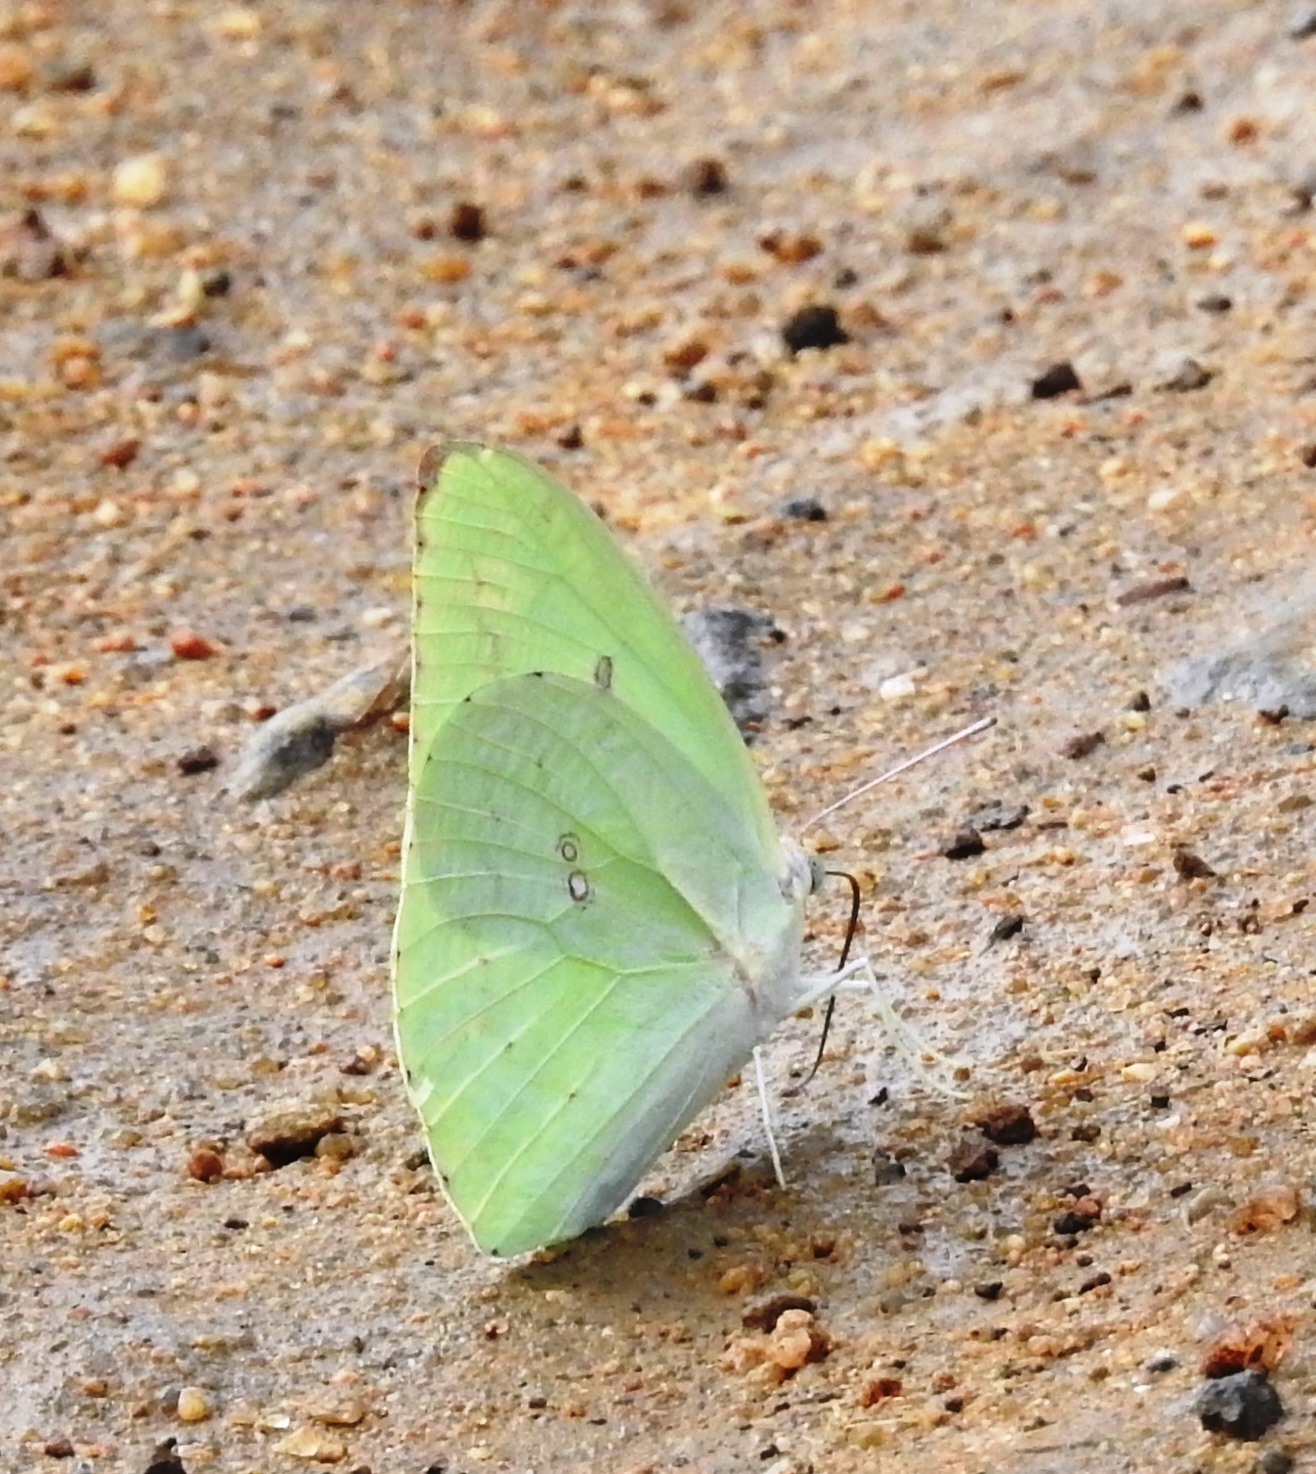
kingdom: Animalia
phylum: Arthropoda
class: Insecta
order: Lepidoptera
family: Pieridae
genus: Catopsilia
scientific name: Catopsilia pomona
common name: Common emigrant
